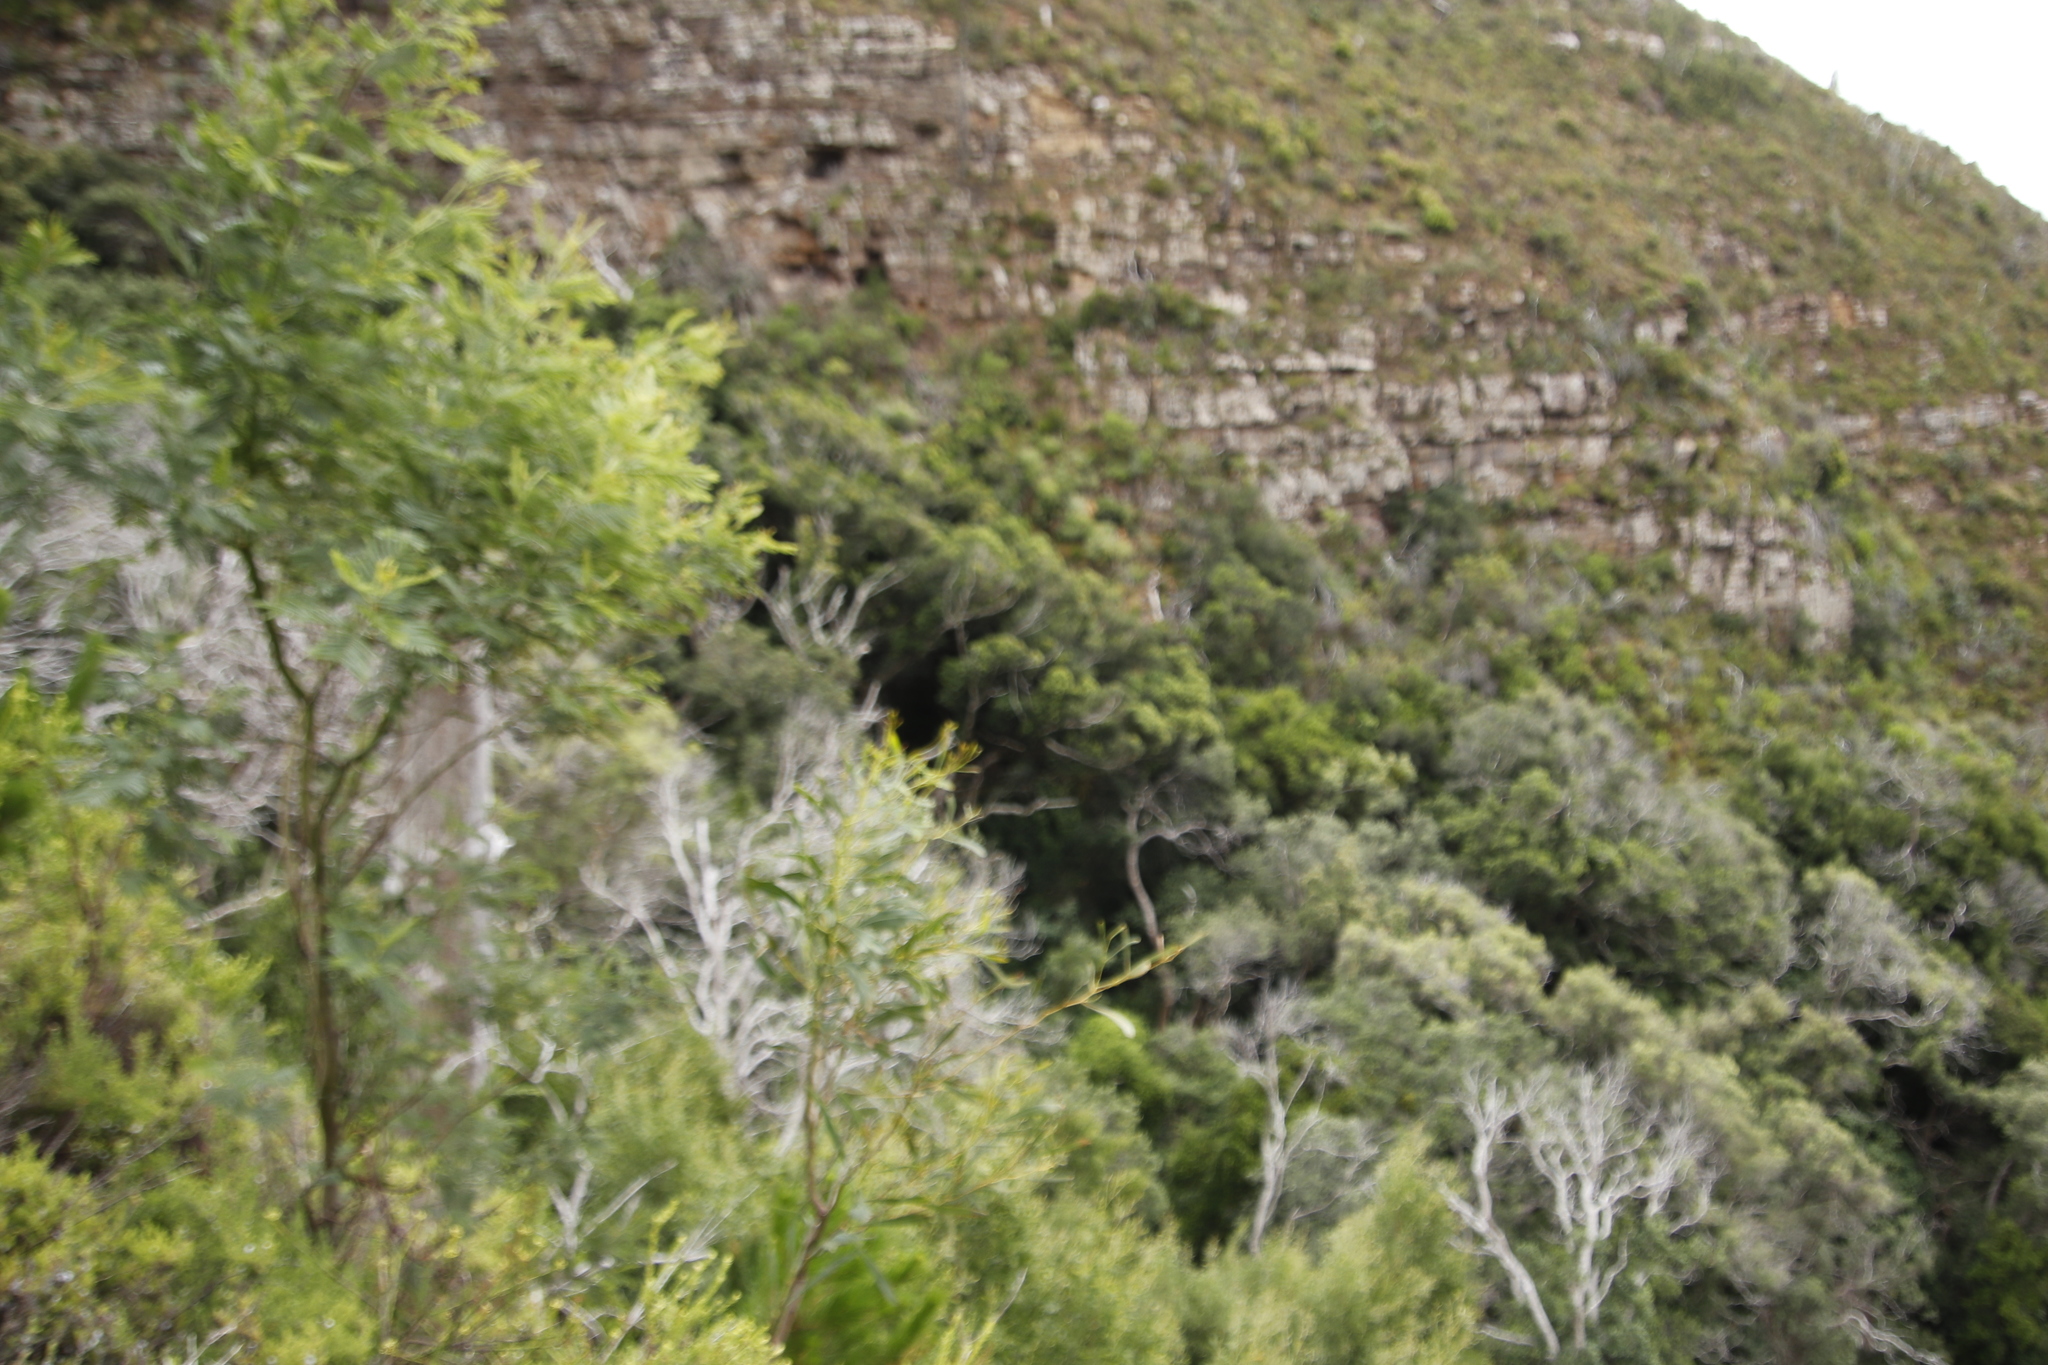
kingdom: Plantae
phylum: Tracheophyta
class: Magnoliopsida
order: Fabales
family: Fabaceae
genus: Acacia
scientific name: Acacia mearnsii
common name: Black wattle
